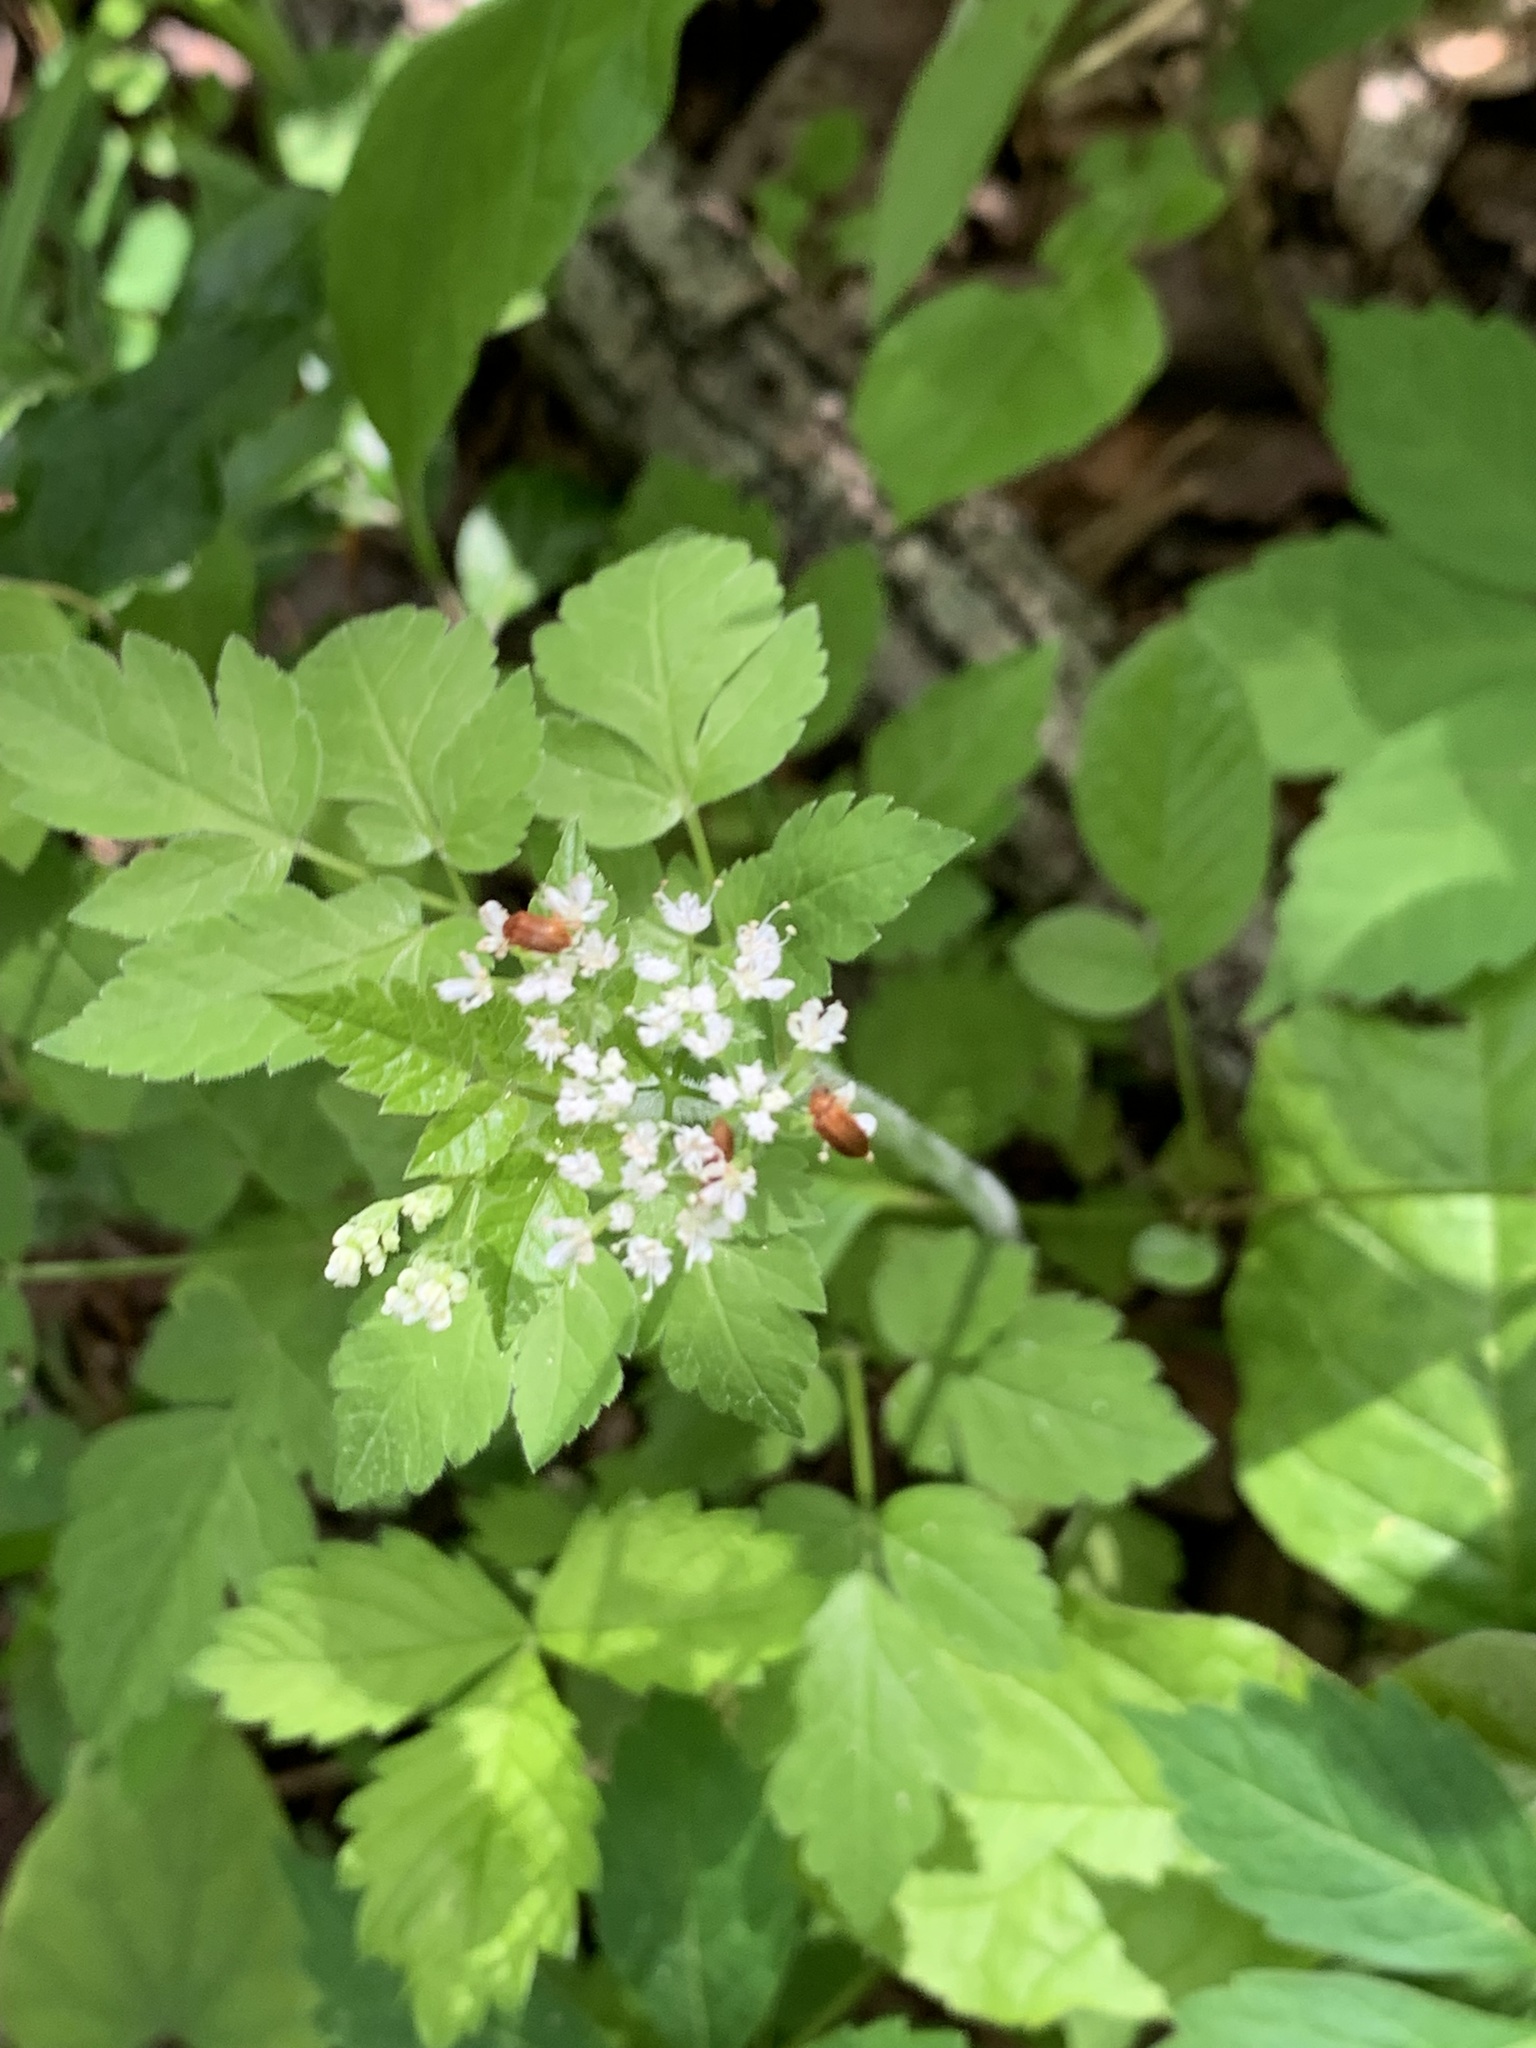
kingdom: Plantae
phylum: Tracheophyta
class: Magnoliopsida
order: Apiales
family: Apiaceae
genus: Osmorhiza
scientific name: Osmorhiza longistylis
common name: Smooth sweet cicely
